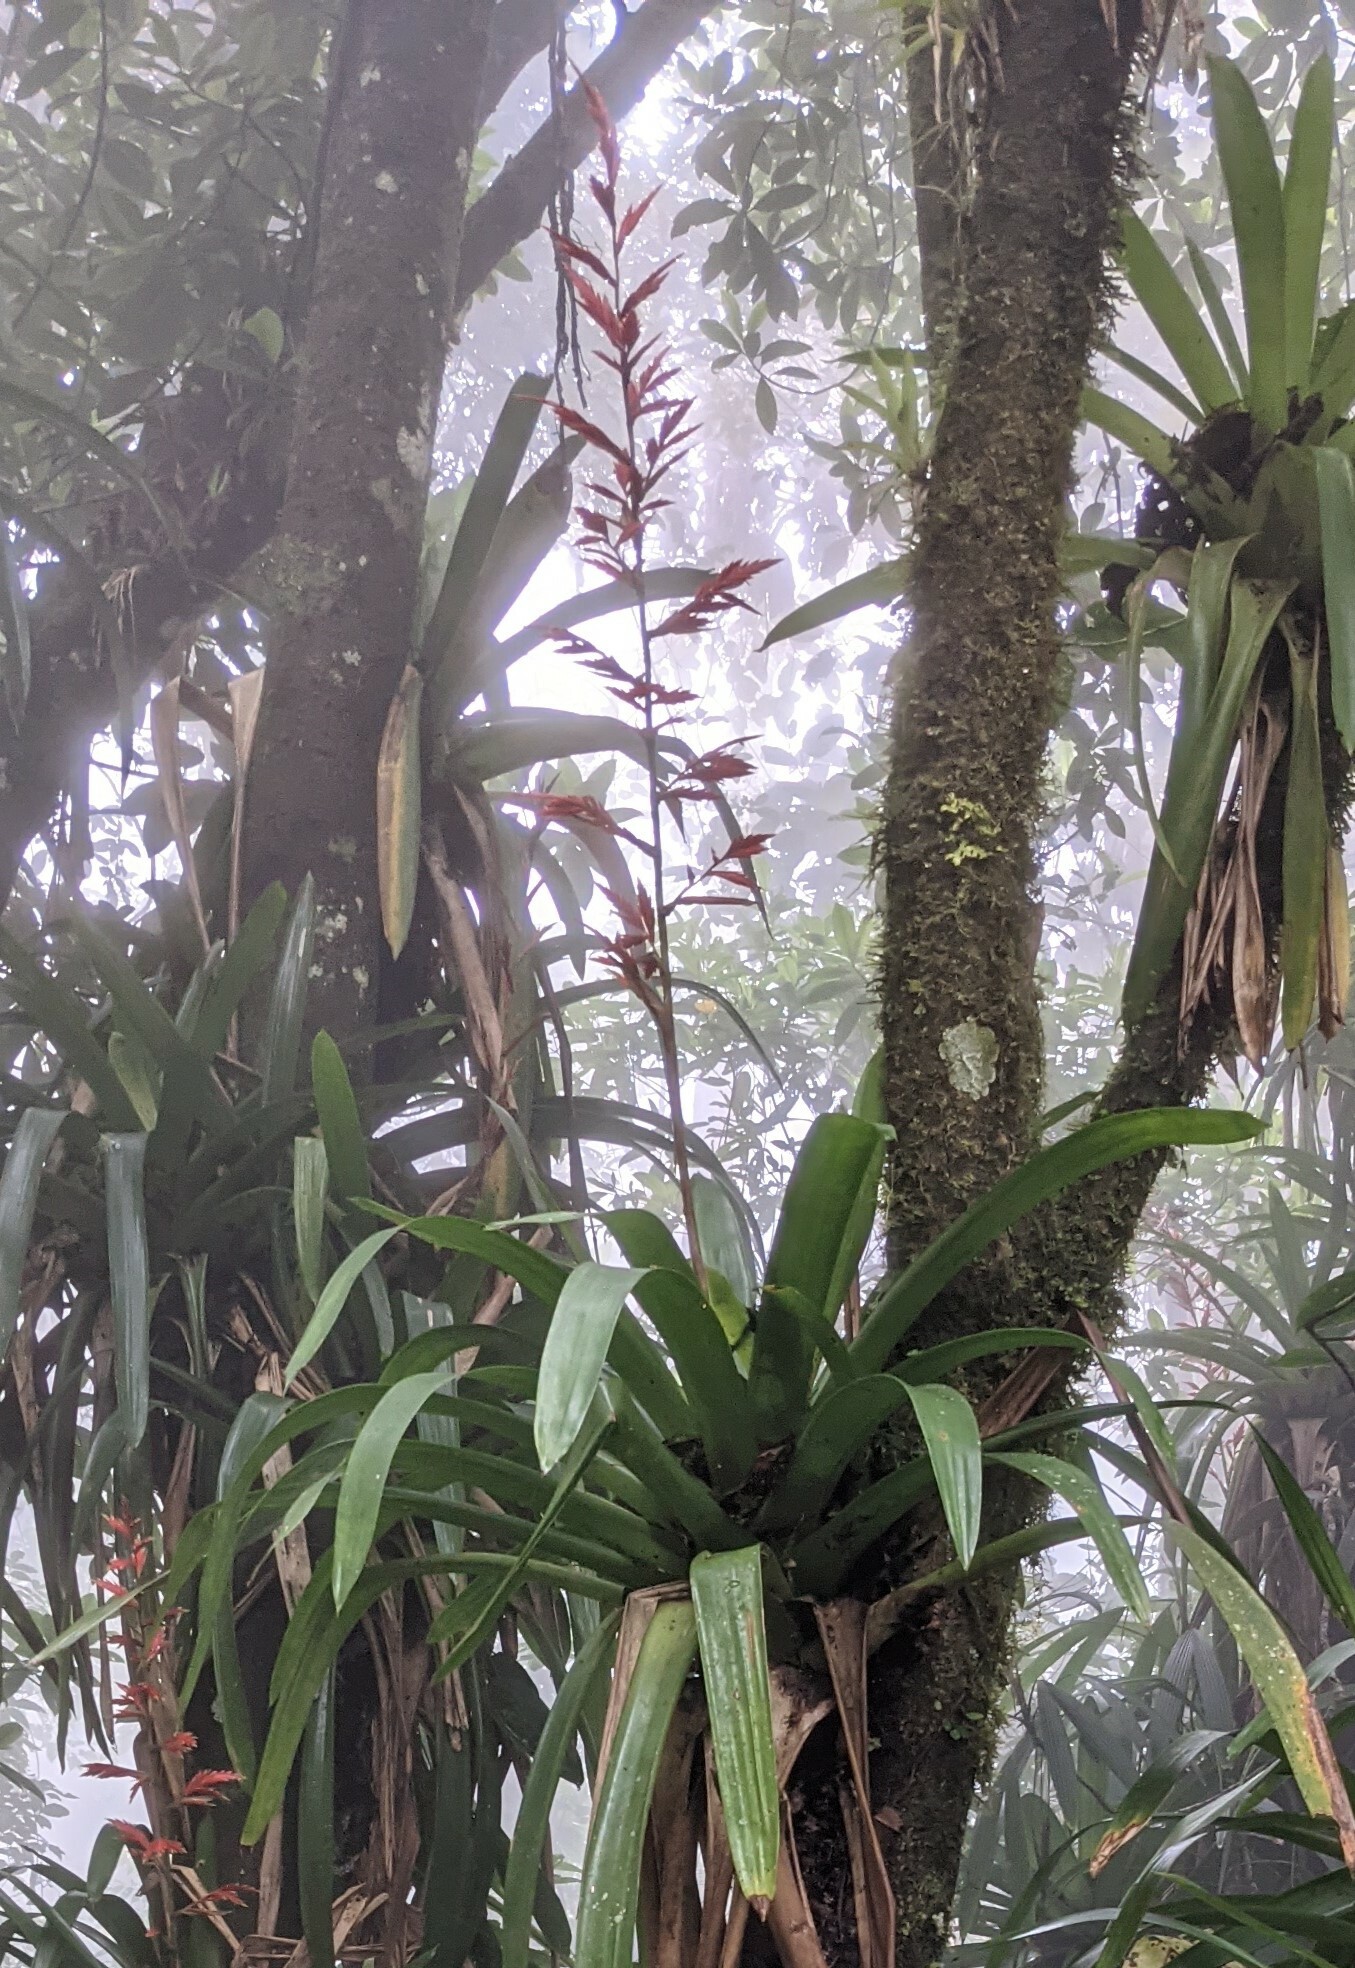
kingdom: Plantae
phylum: Tracheophyta
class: Liliopsida
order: Poales
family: Bromeliaceae
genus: Vriesea
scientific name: Vriesea elata
